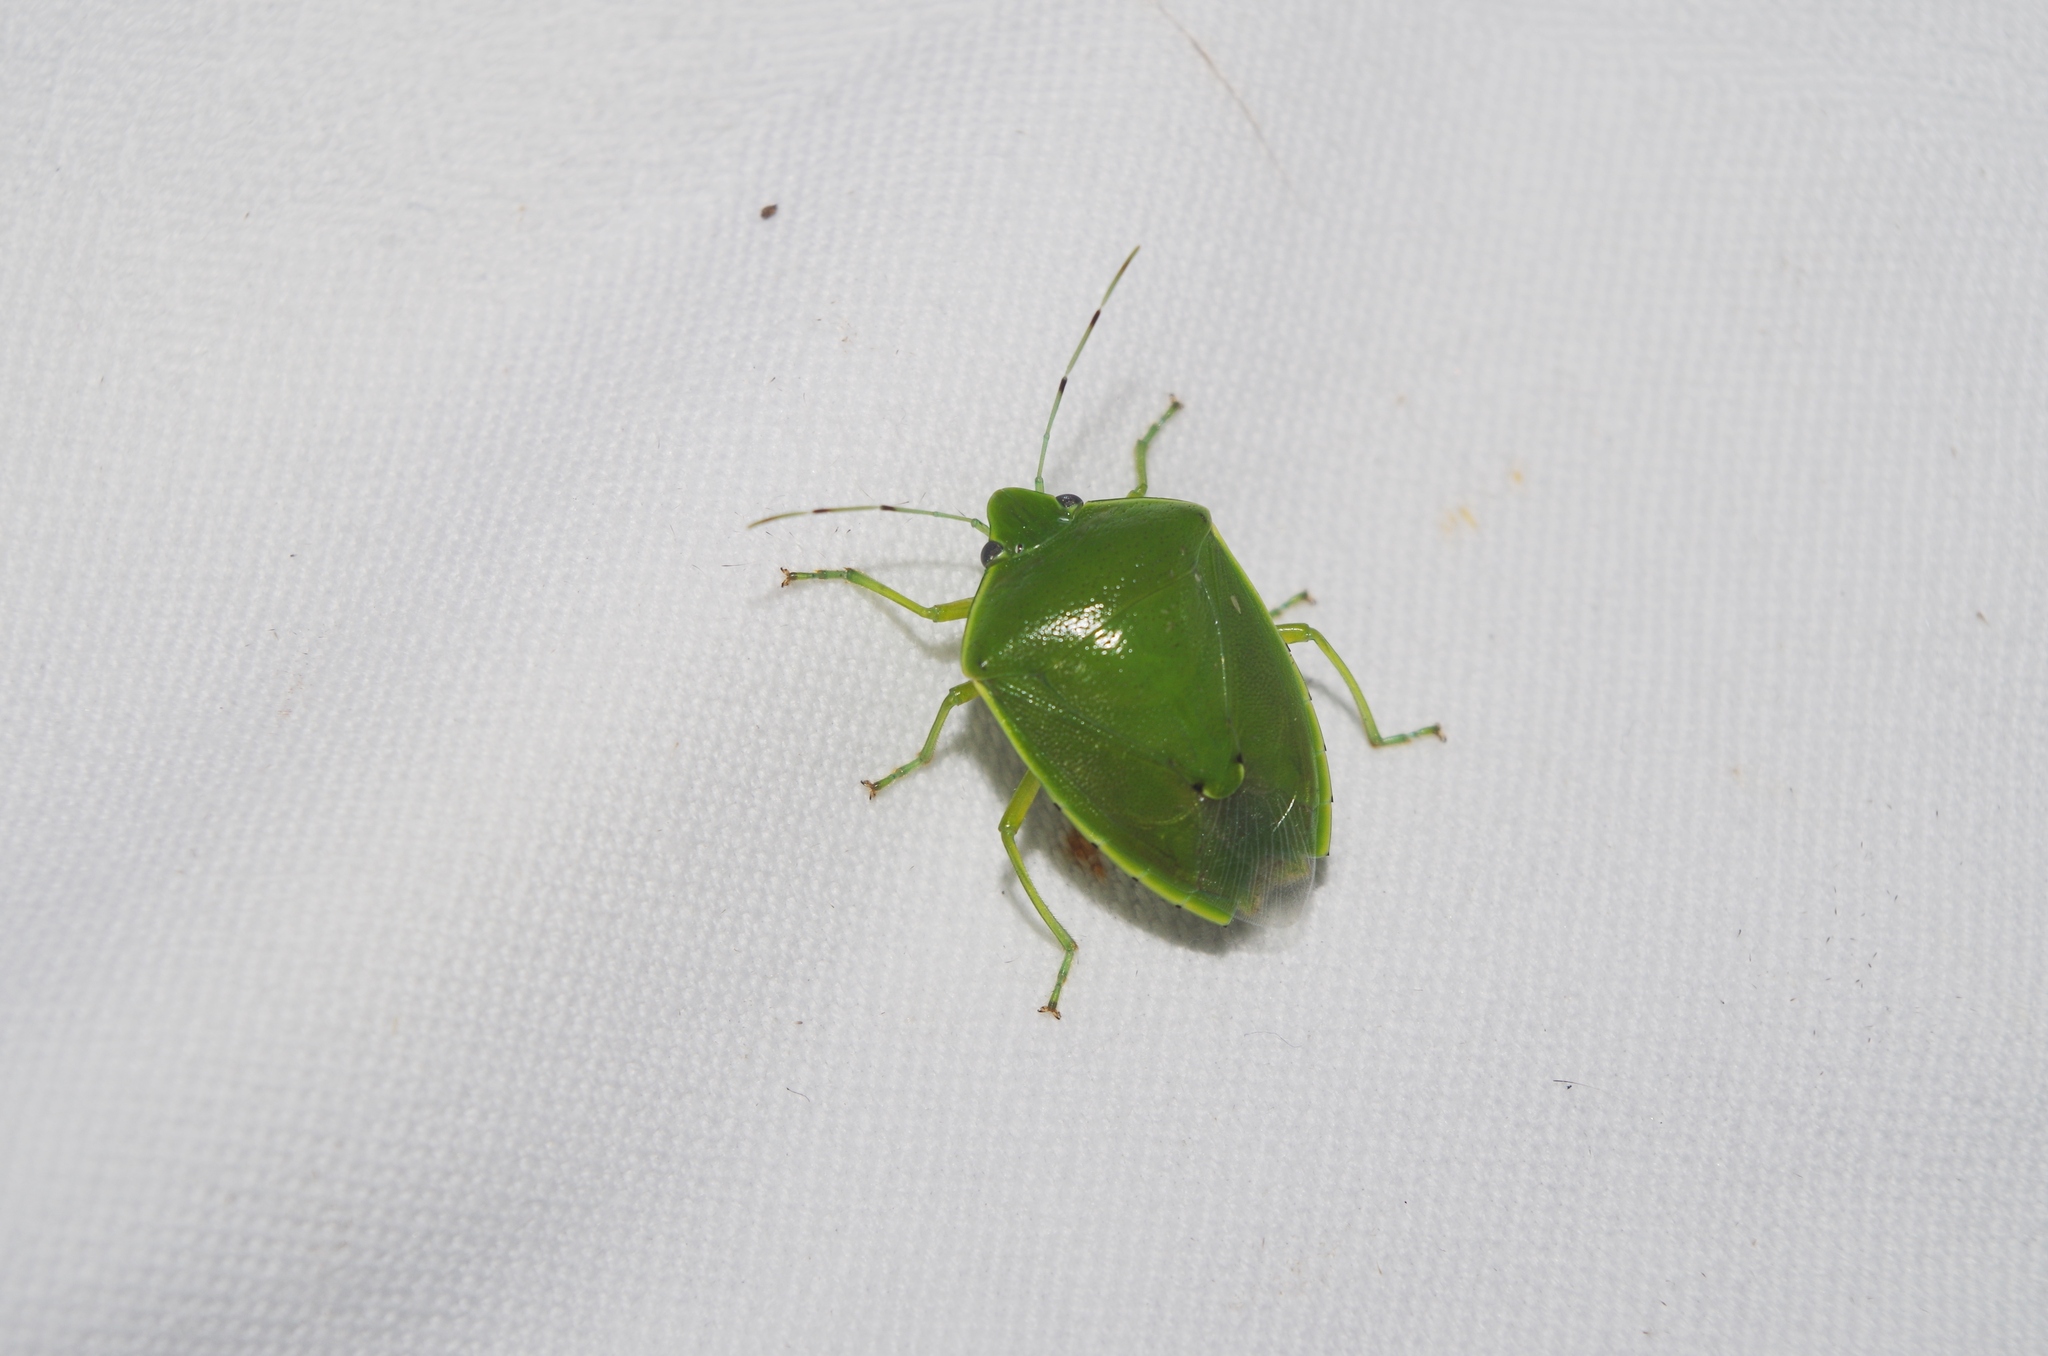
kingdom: Animalia
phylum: Arthropoda
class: Insecta
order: Hemiptera
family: Pentatomidae
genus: Glaucias
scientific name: Glaucias subpunctatus
